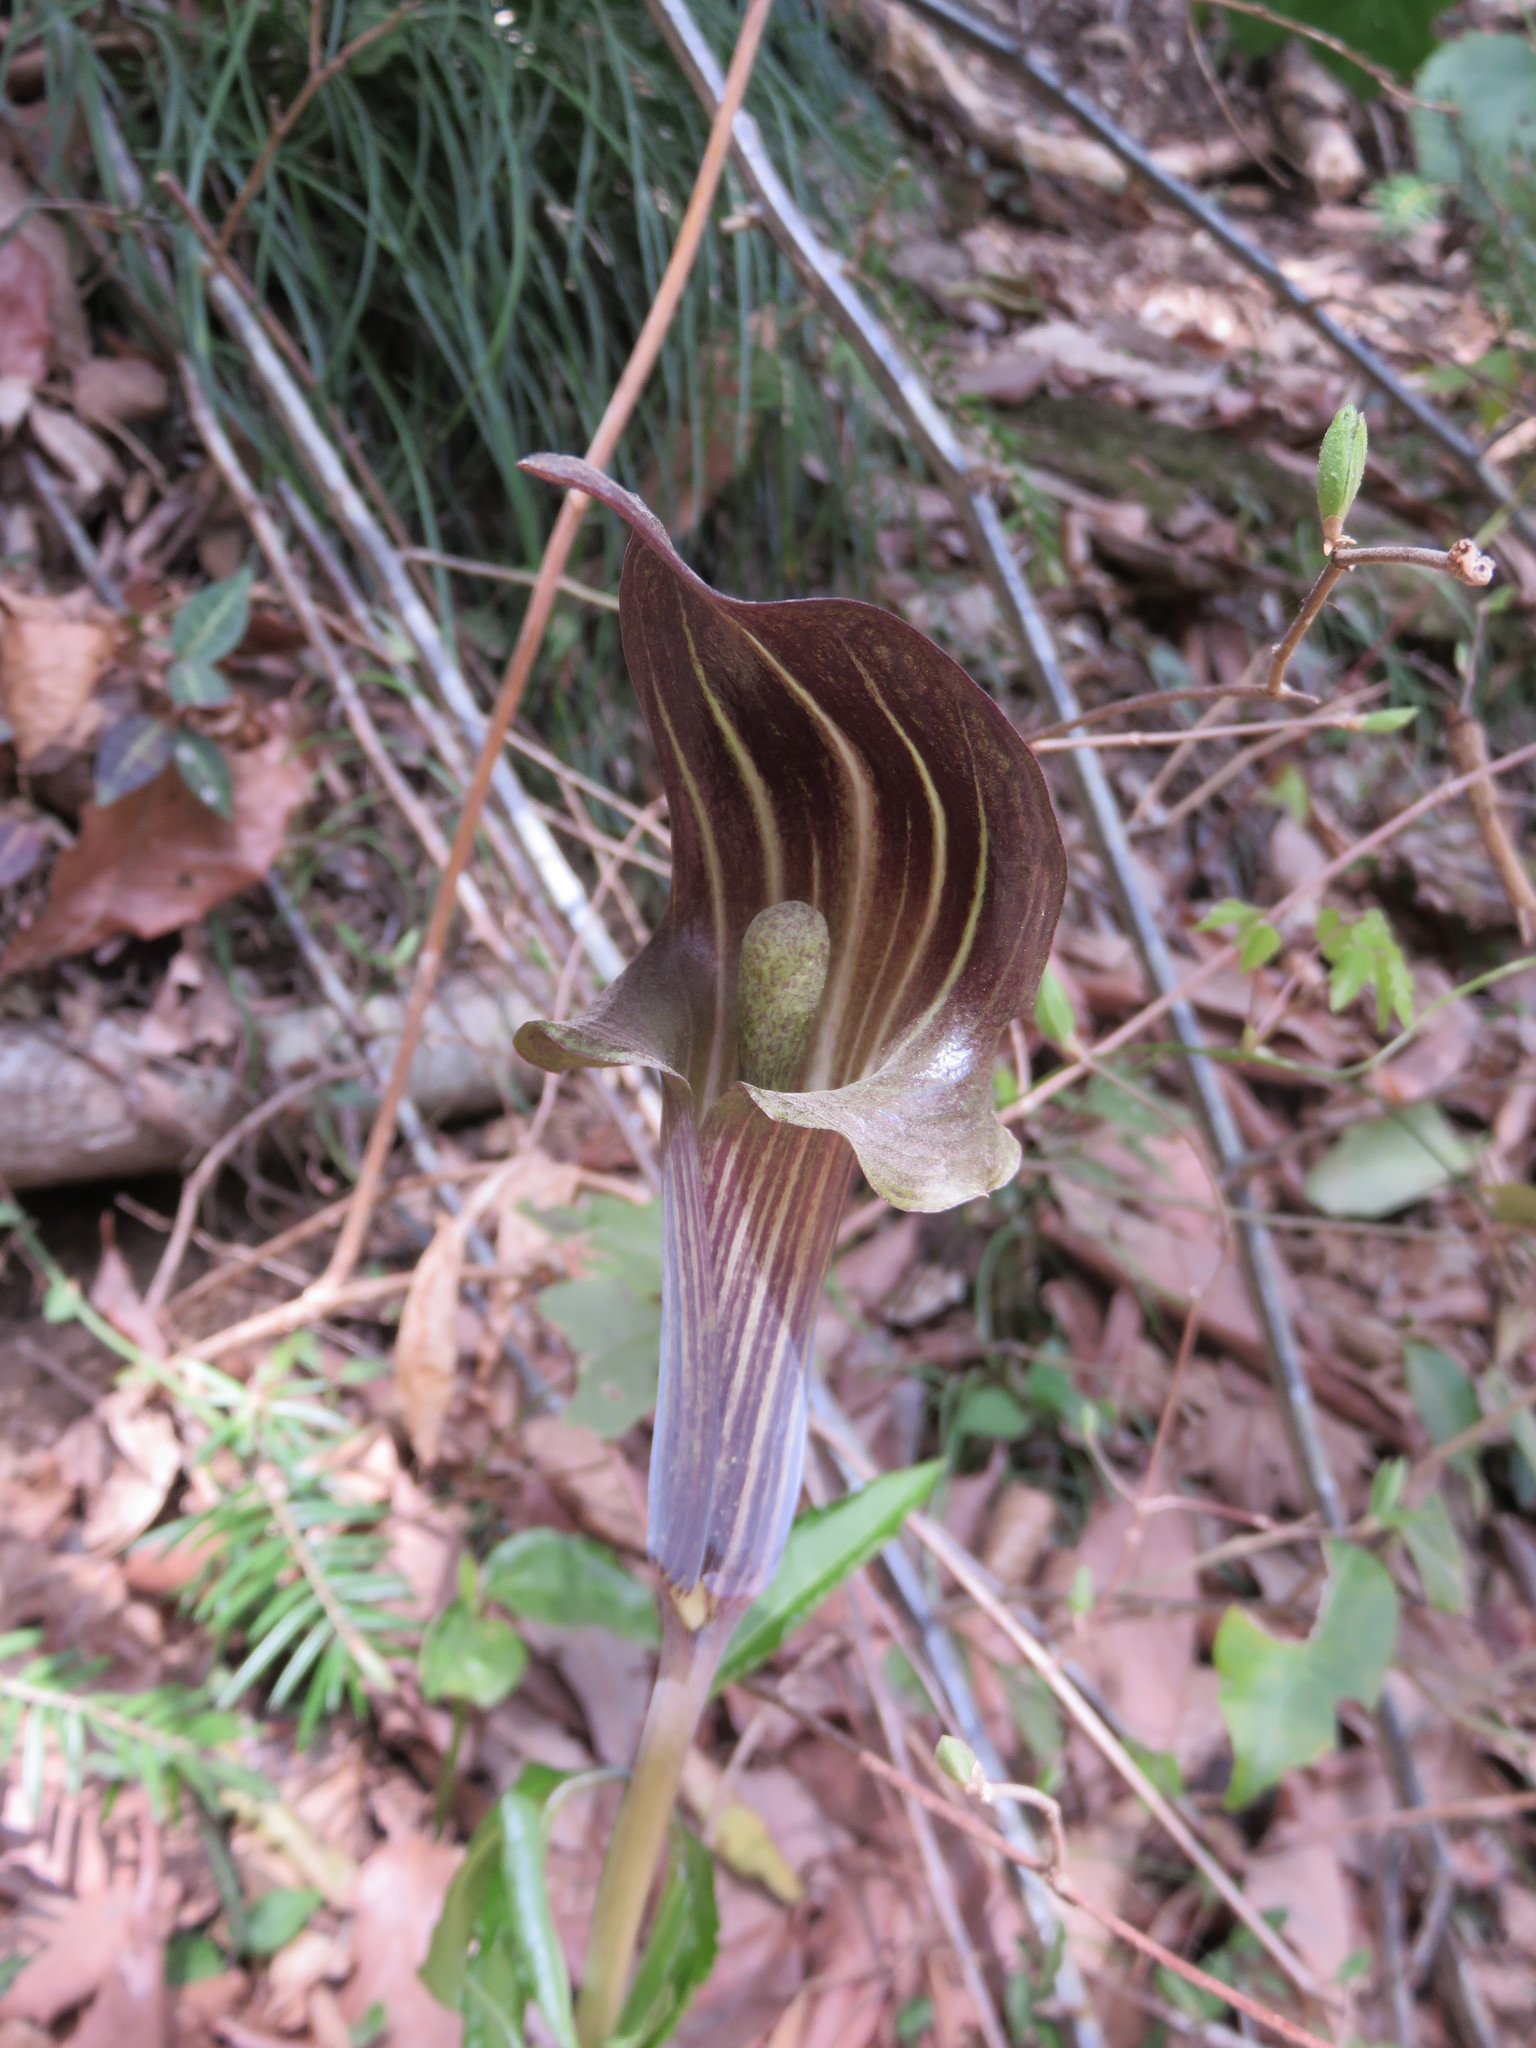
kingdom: Plantae
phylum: Tracheophyta
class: Liliopsida
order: Alismatales
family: Araceae
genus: Arisaema
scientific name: Arisaema limbatum
